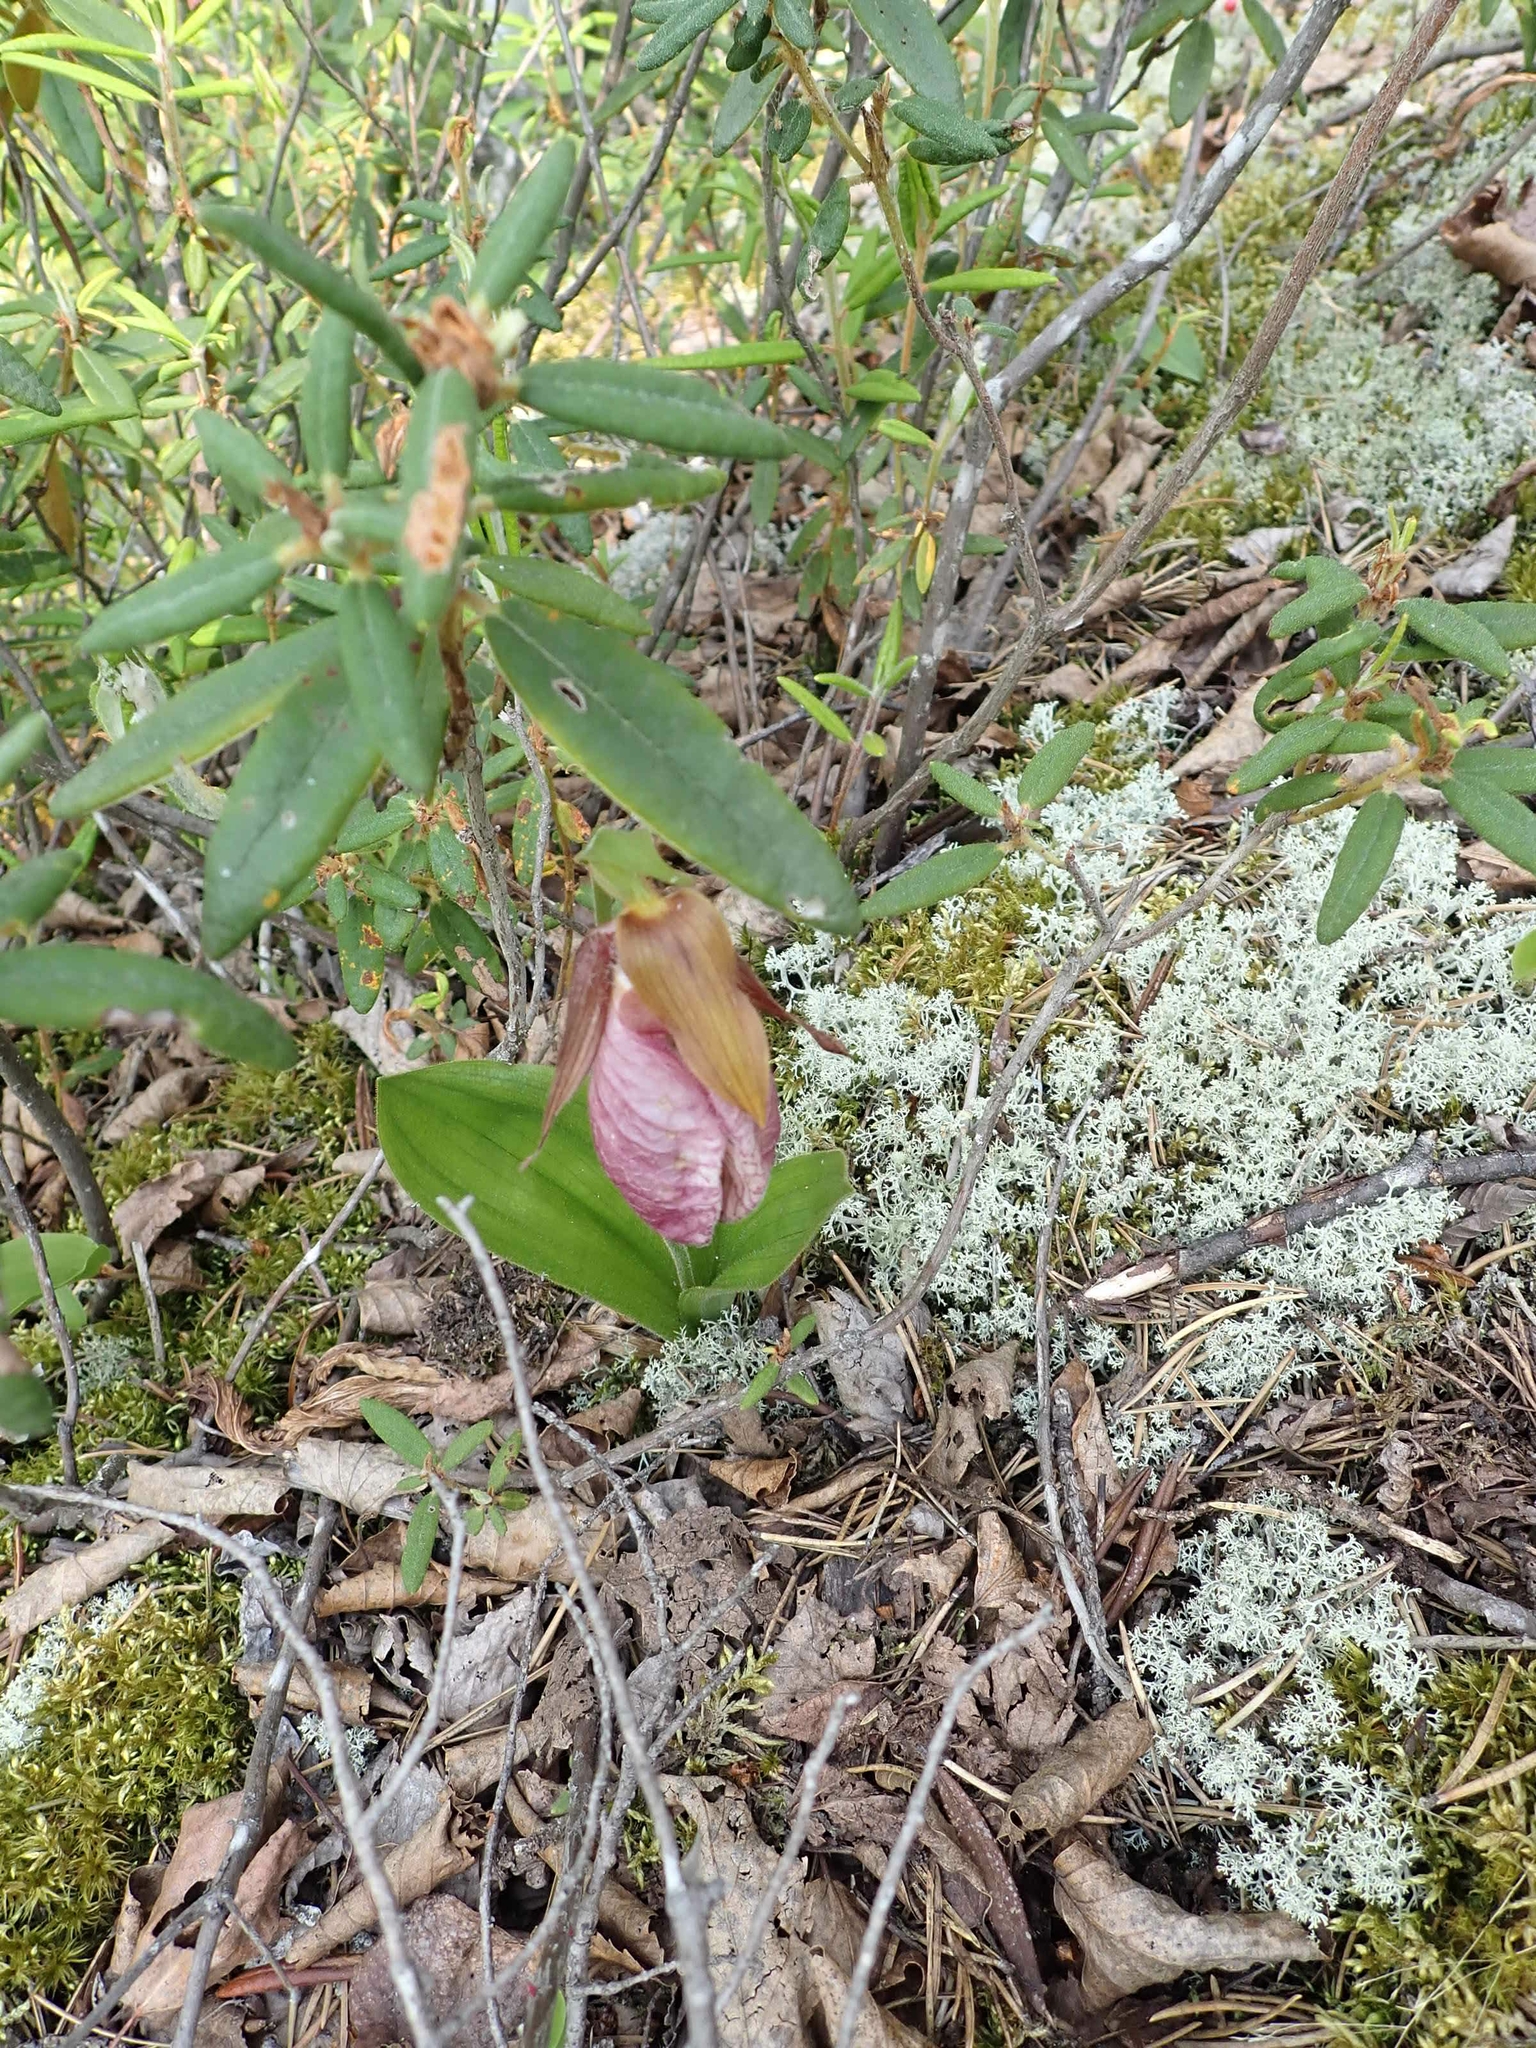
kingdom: Plantae
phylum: Tracheophyta
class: Liliopsida
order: Asparagales
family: Orchidaceae
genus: Cypripedium
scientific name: Cypripedium acaule
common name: Pink lady's-slipper
